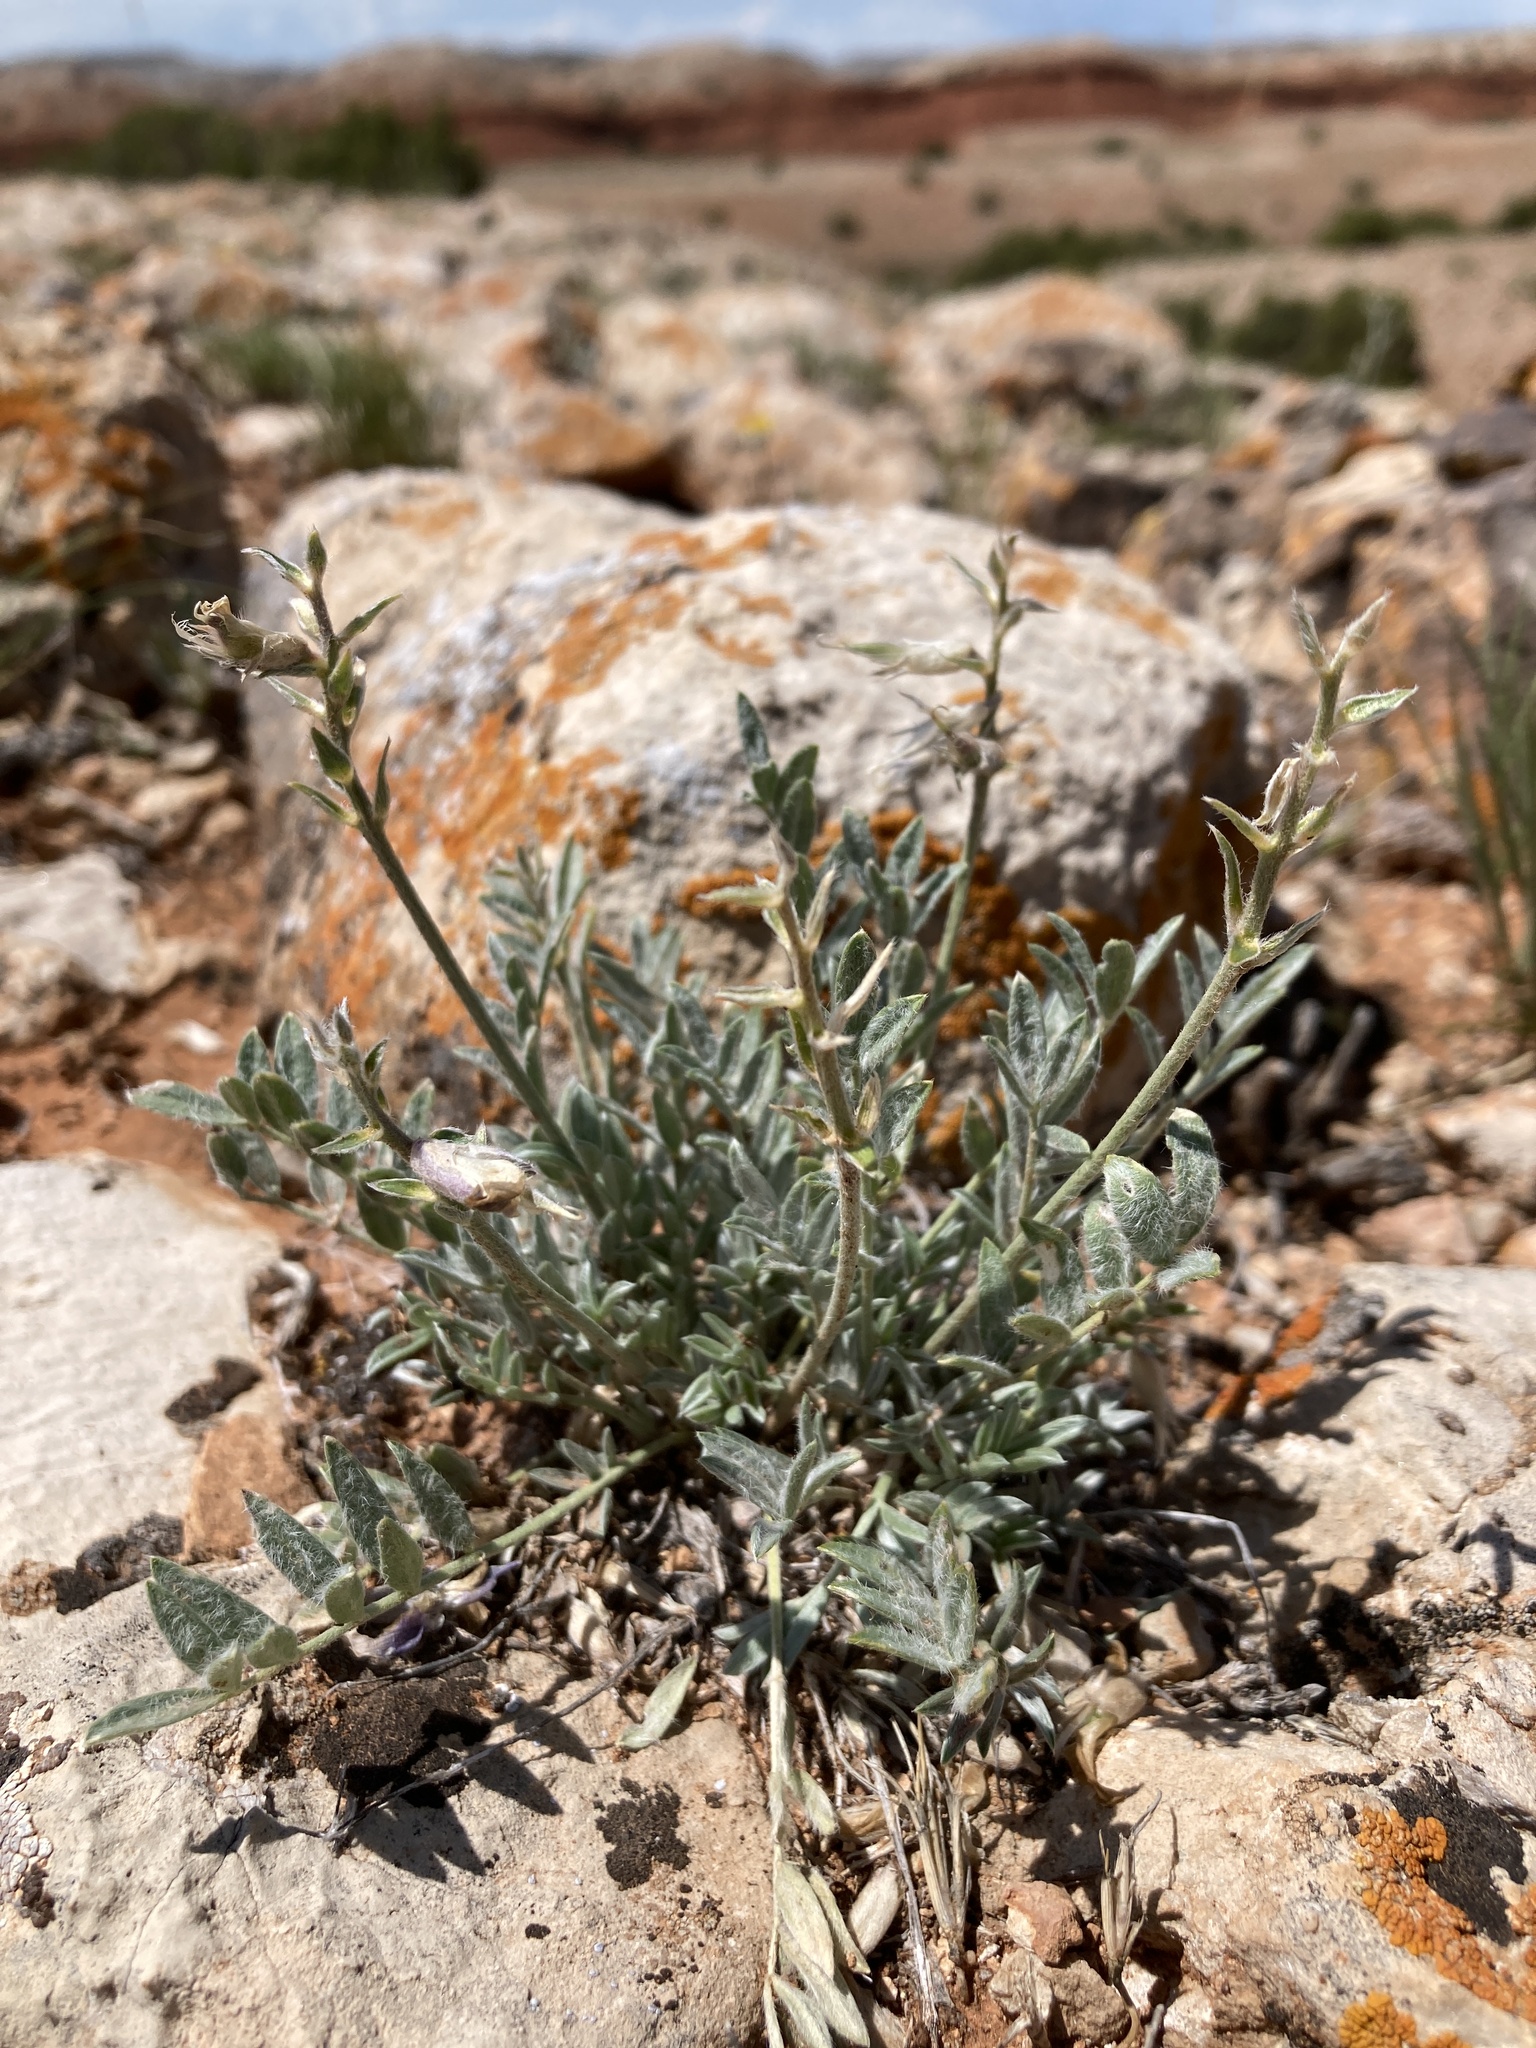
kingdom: Plantae
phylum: Tracheophyta
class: Magnoliopsida
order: Fabales
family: Fabaceae
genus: Oxytropis
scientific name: Oxytropis besseyi
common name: Bessey's locoweed
